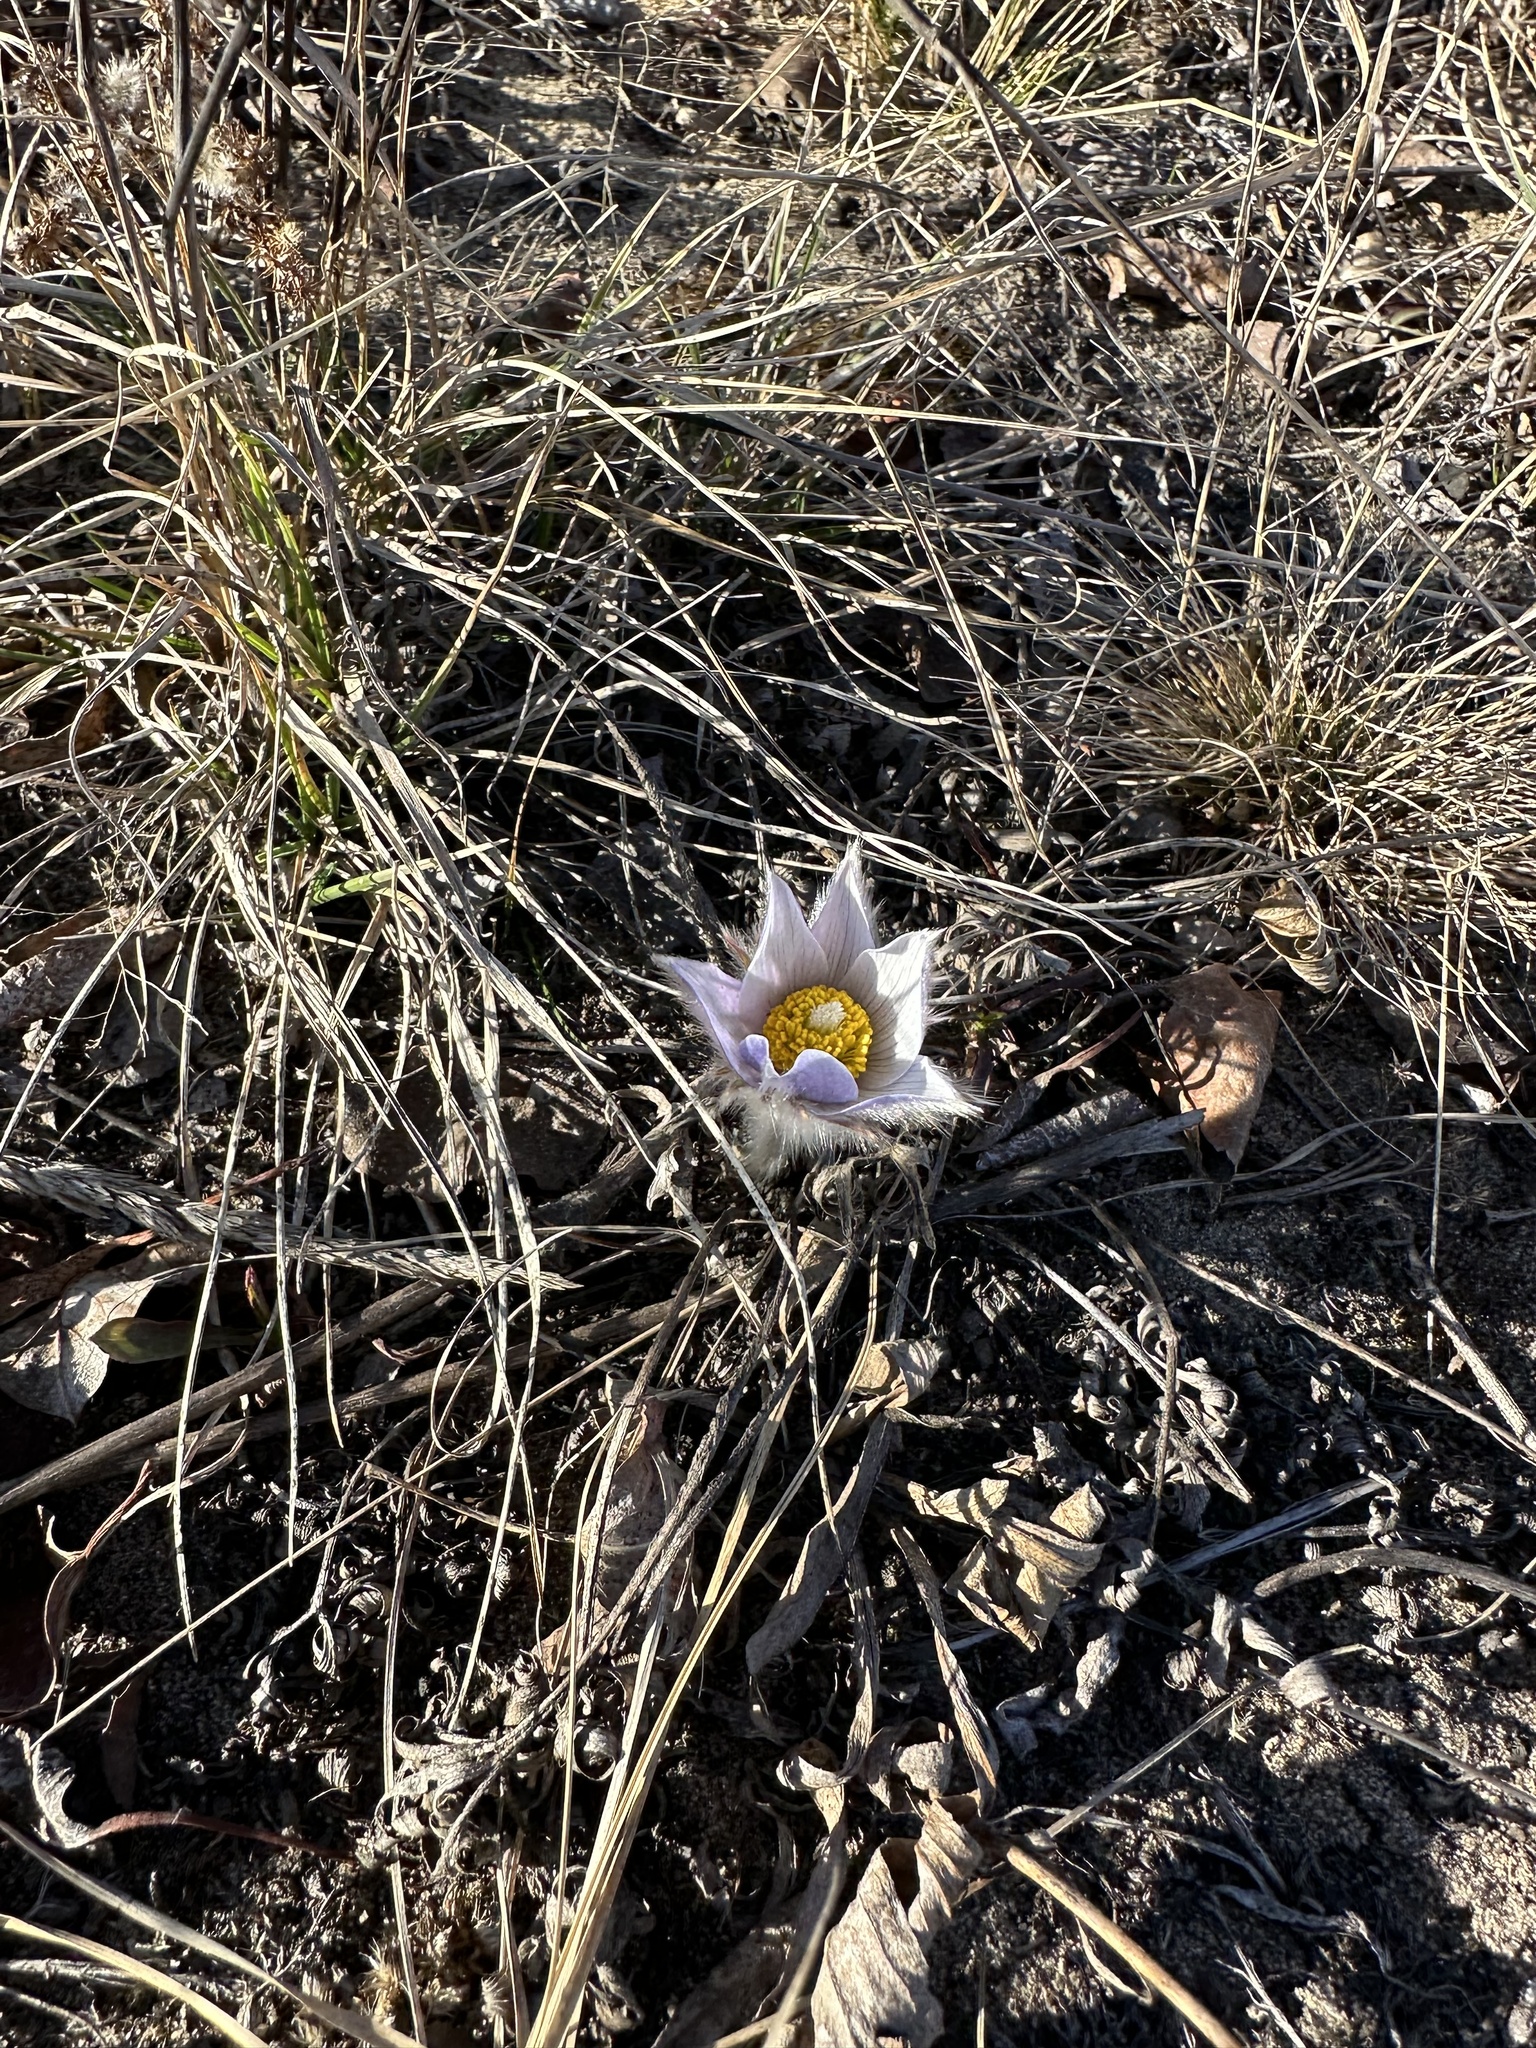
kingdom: Plantae
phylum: Tracheophyta
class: Magnoliopsida
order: Ranunculales
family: Ranunculaceae
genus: Pulsatilla
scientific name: Pulsatilla nuttalliana
